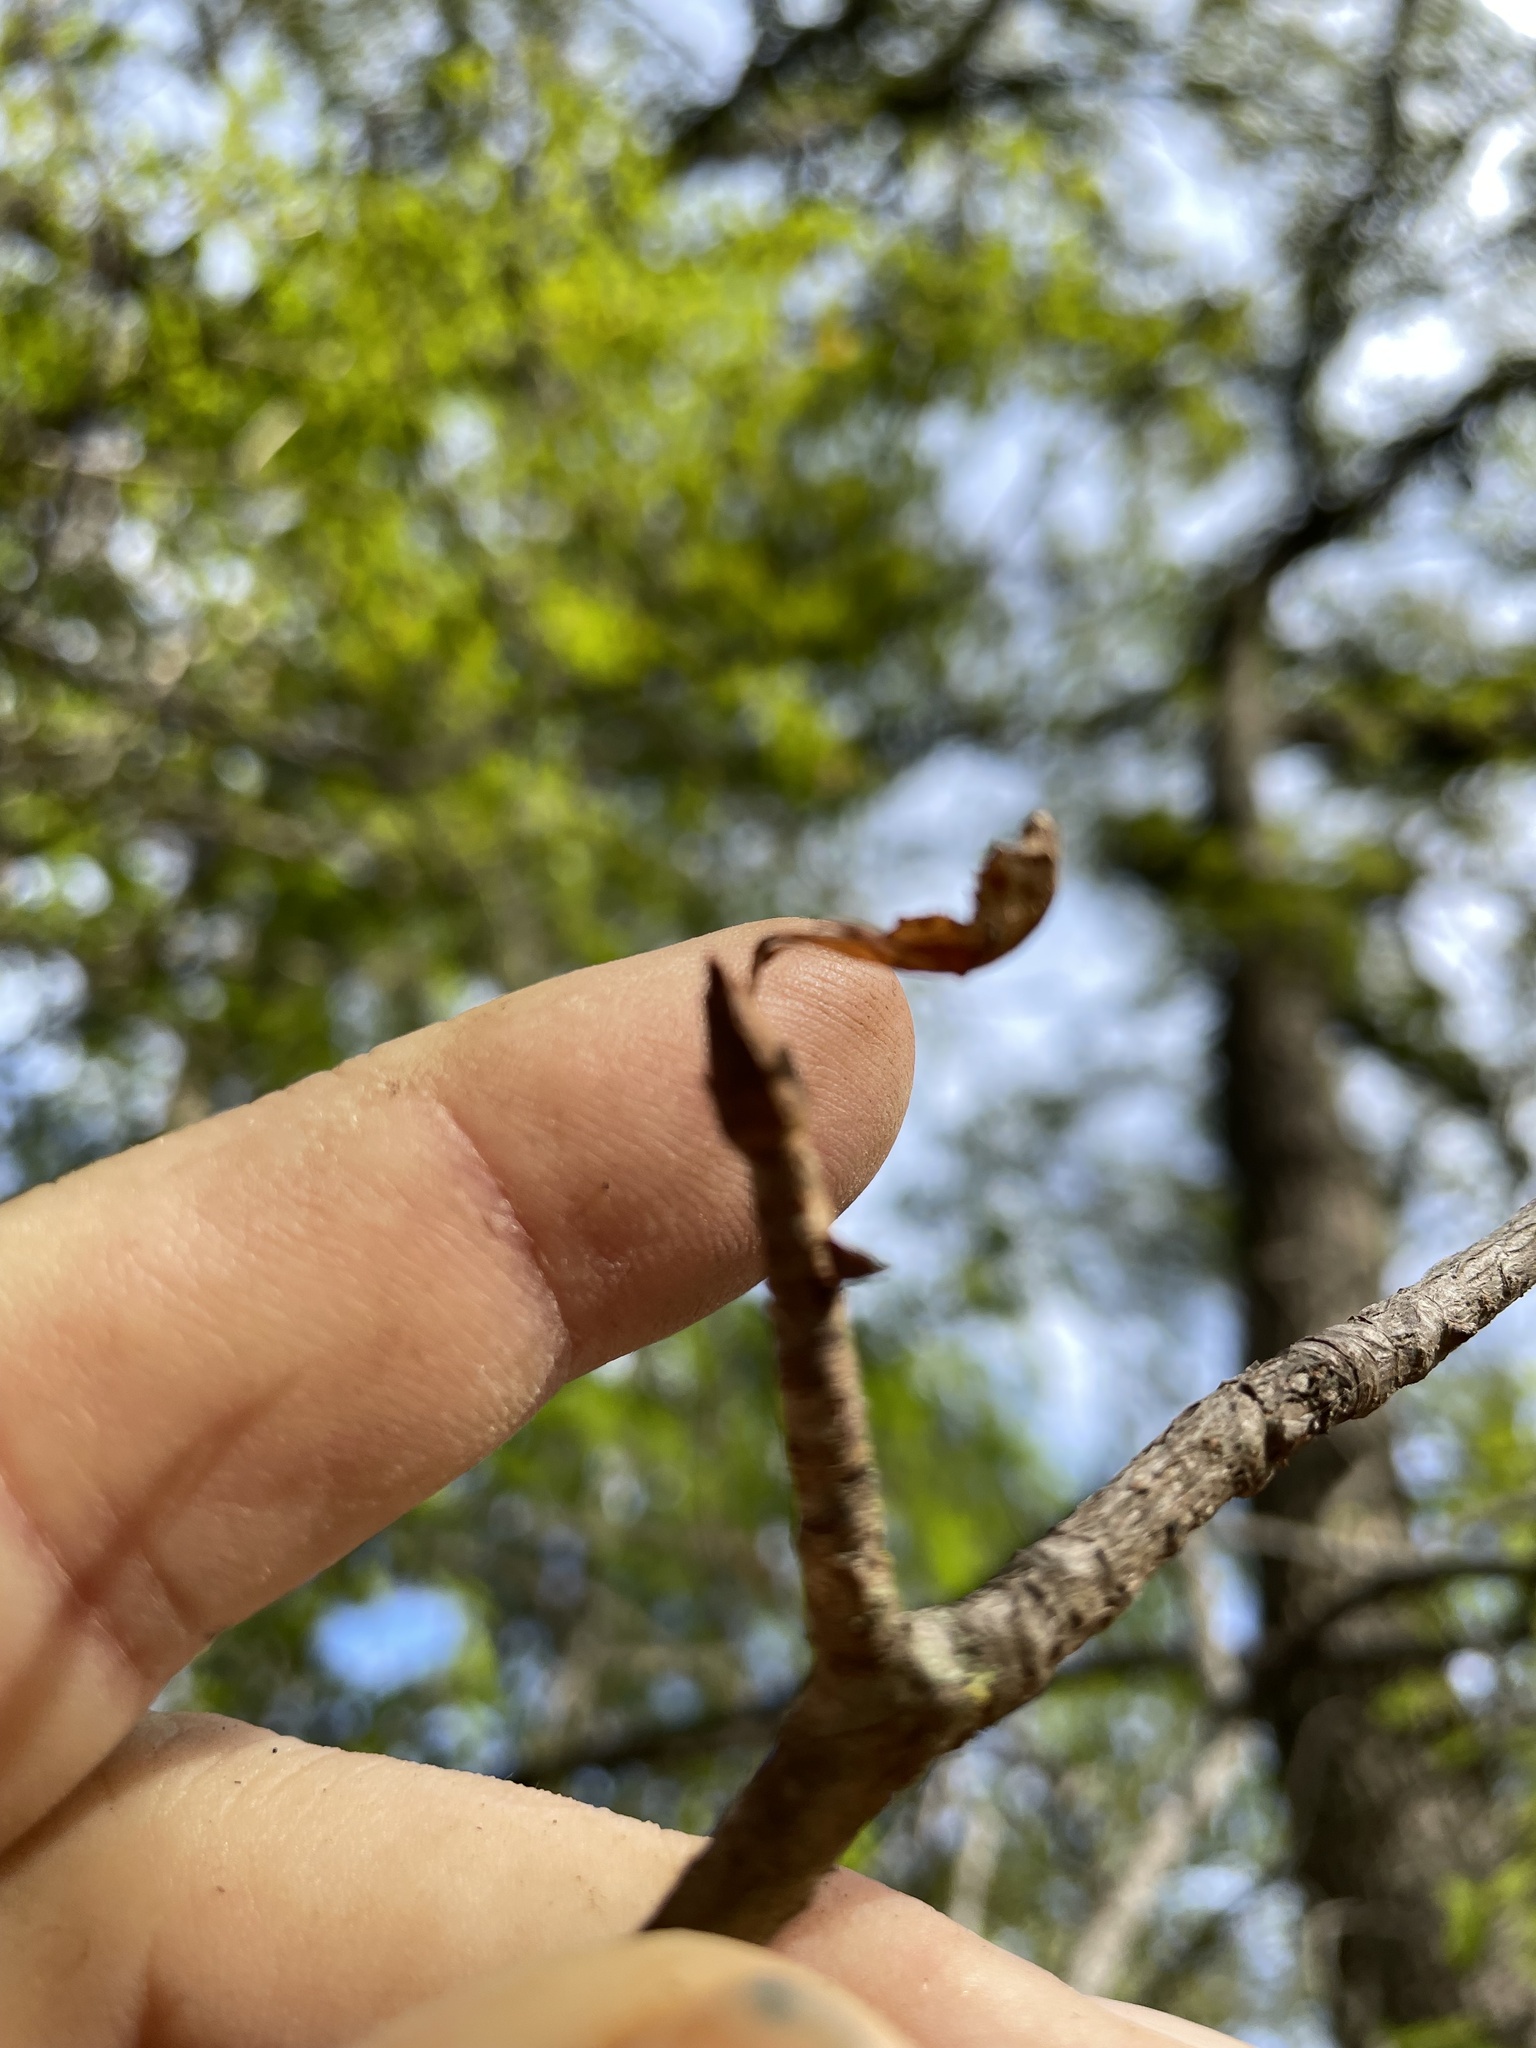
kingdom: Plantae
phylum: Tracheophyta
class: Magnoliopsida
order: Sapindales
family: Sapindaceae
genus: Aesculus
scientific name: Aesculus glabra
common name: Ohio buckeye
